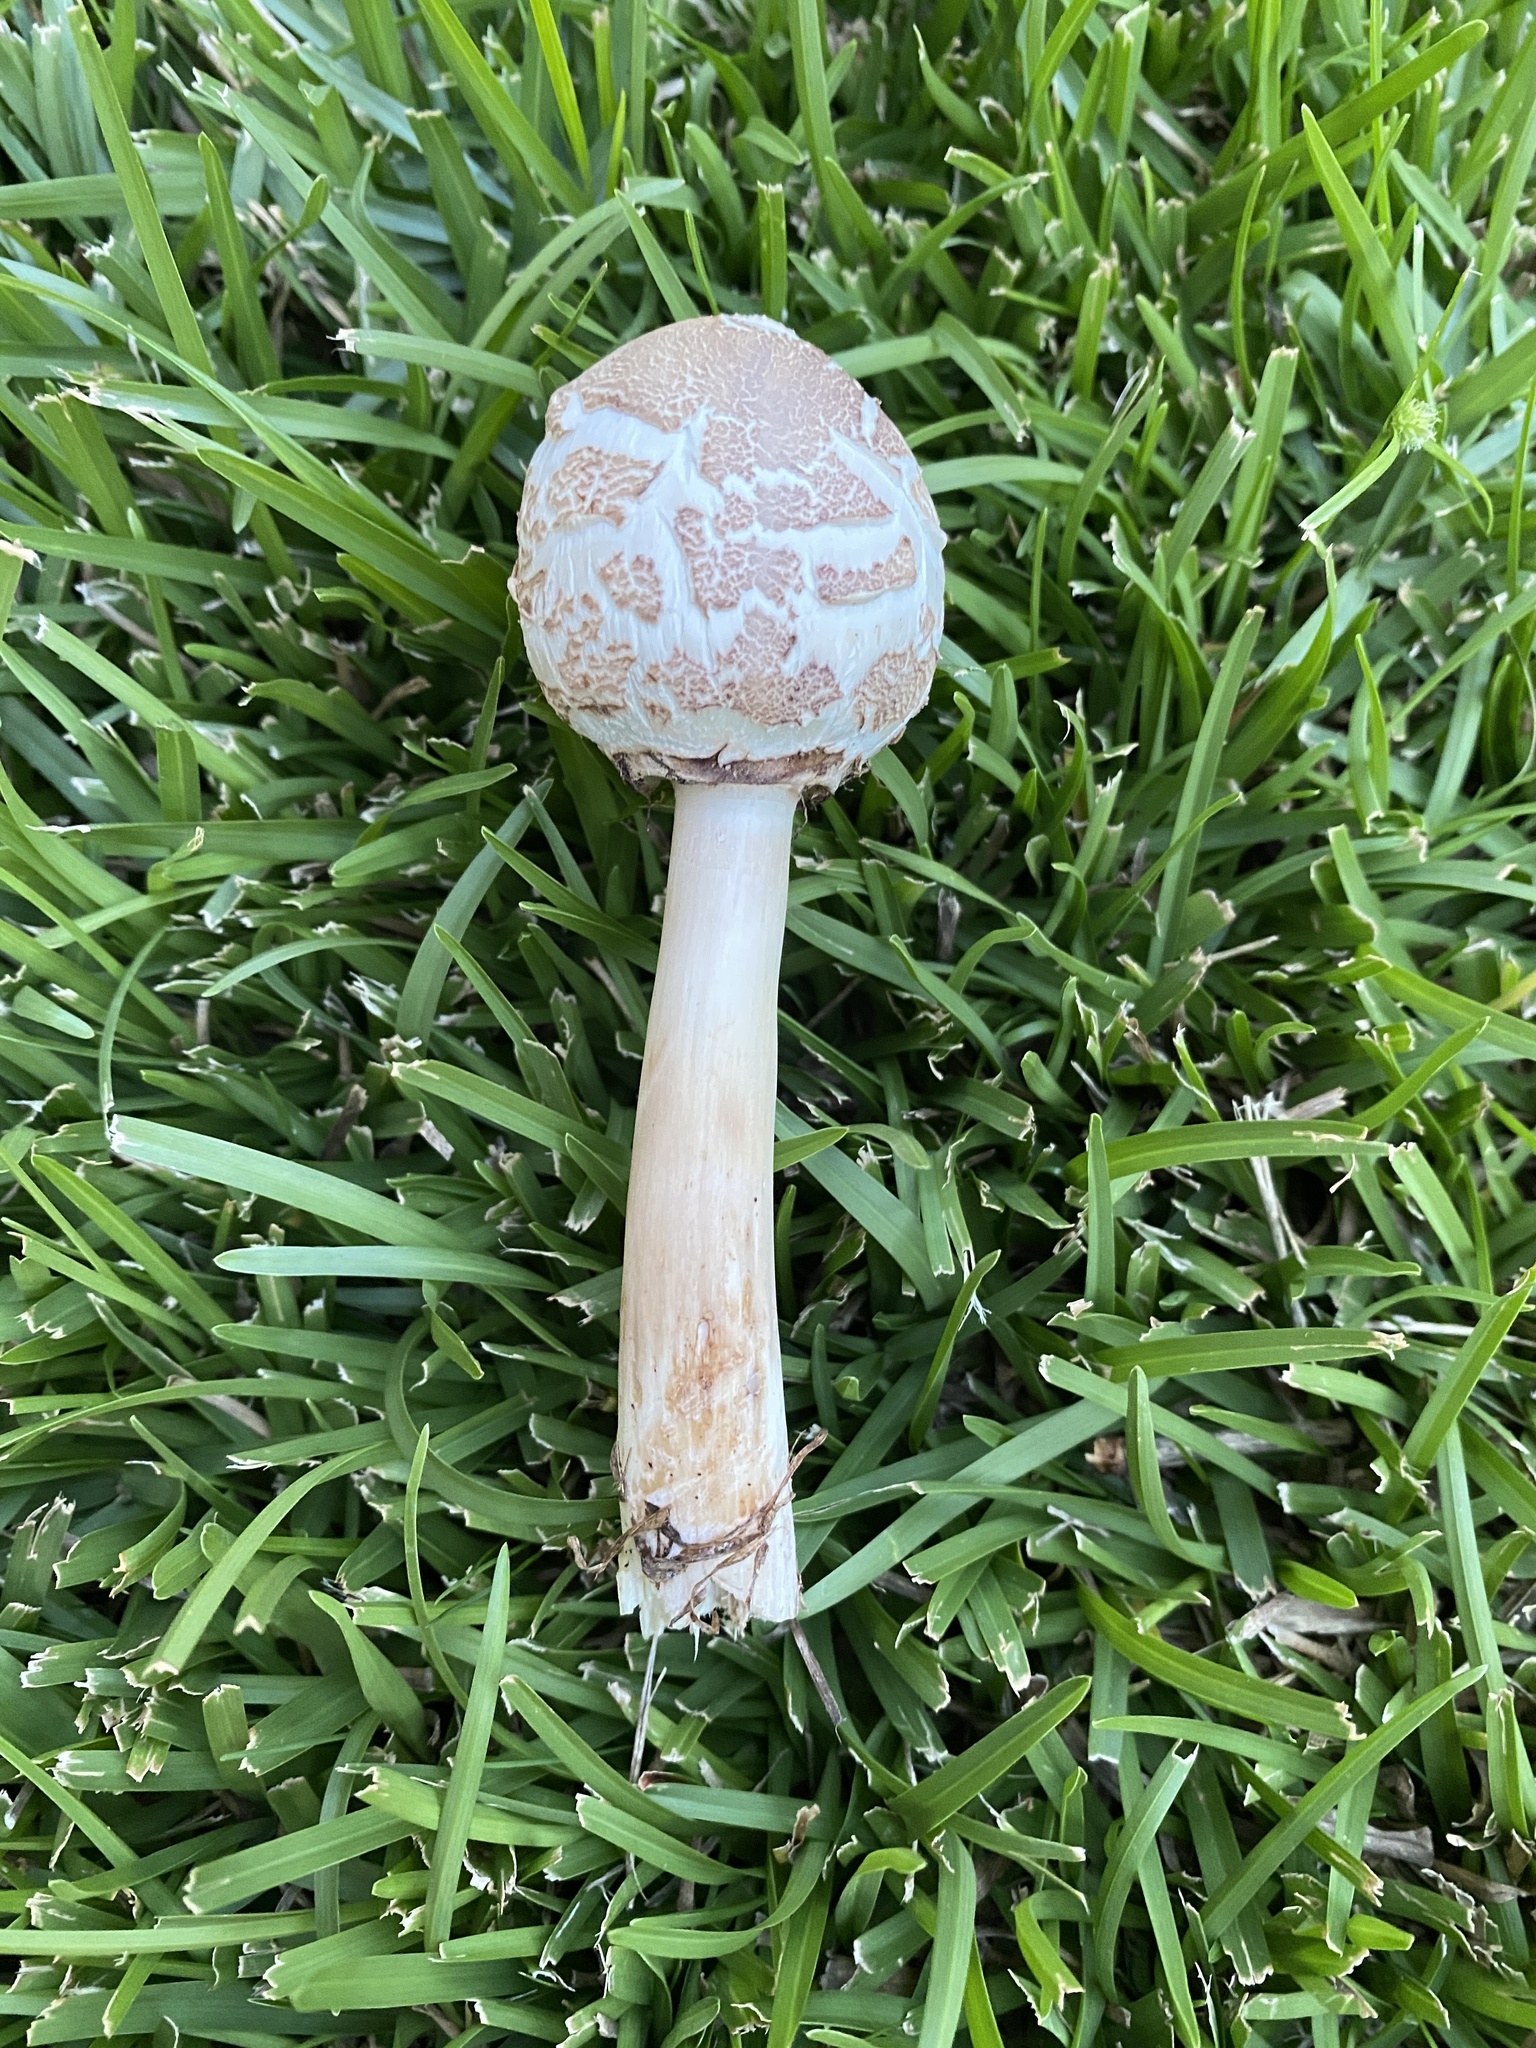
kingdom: Fungi
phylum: Basidiomycota
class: Agaricomycetes
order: Agaricales
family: Agaricaceae
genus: Chlorophyllum
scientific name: Chlorophyllum molybdites
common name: False parasol
